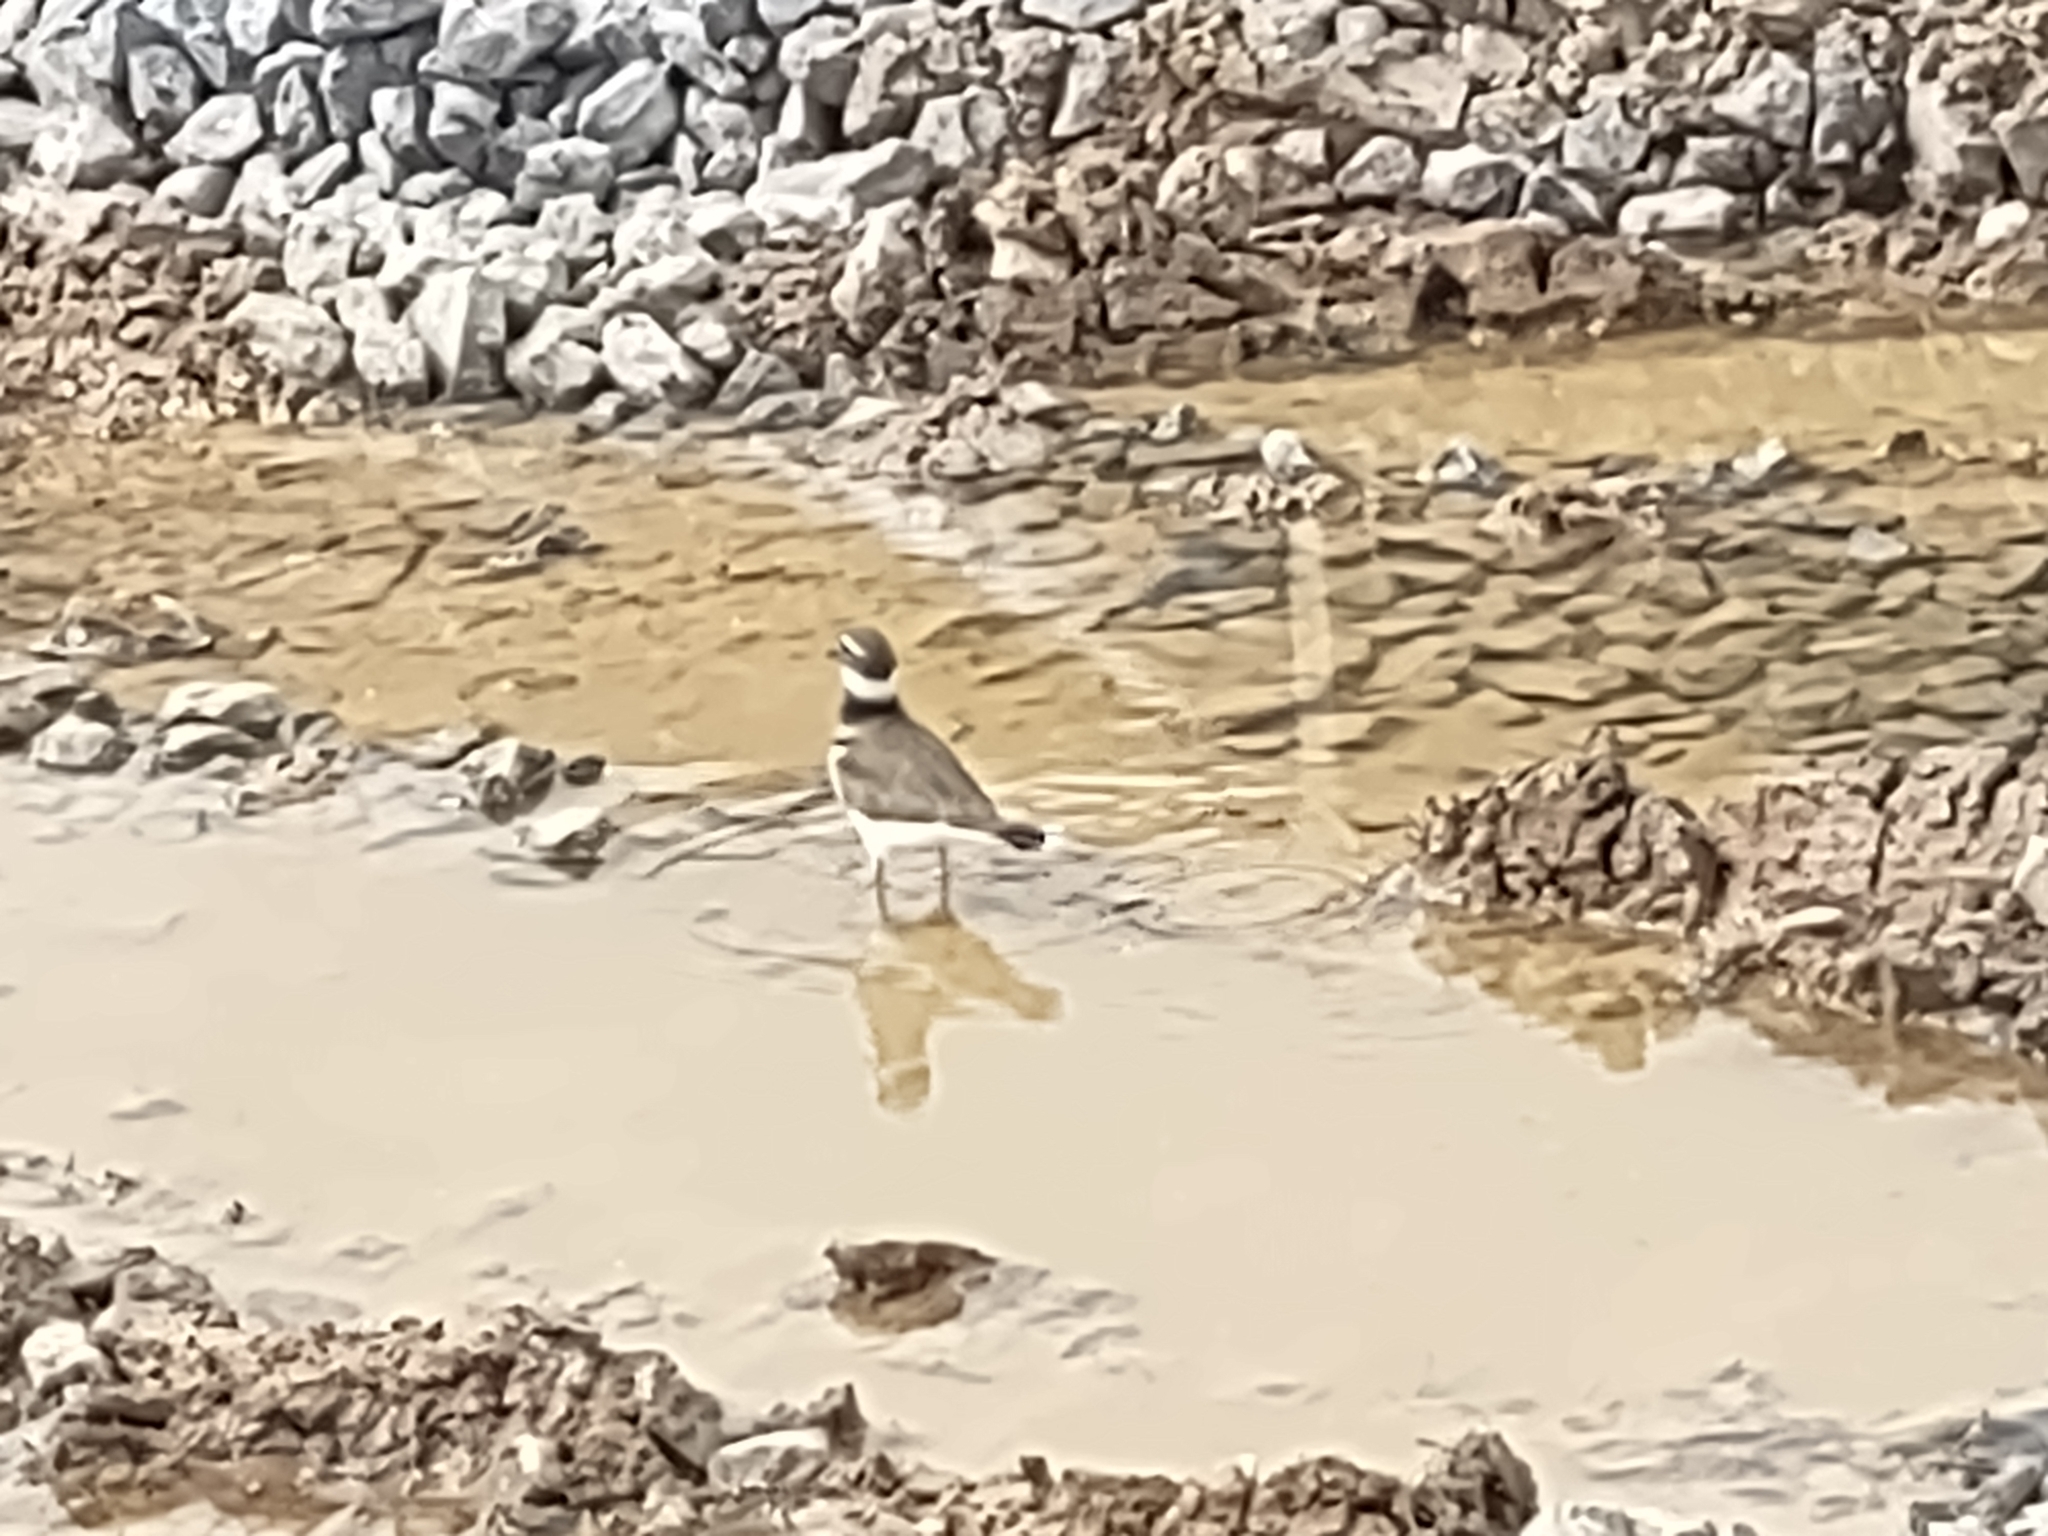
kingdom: Animalia
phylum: Chordata
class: Aves
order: Charadriiformes
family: Charadriidae
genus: Charadrius
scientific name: Charadrius vociferus
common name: Killdeer
